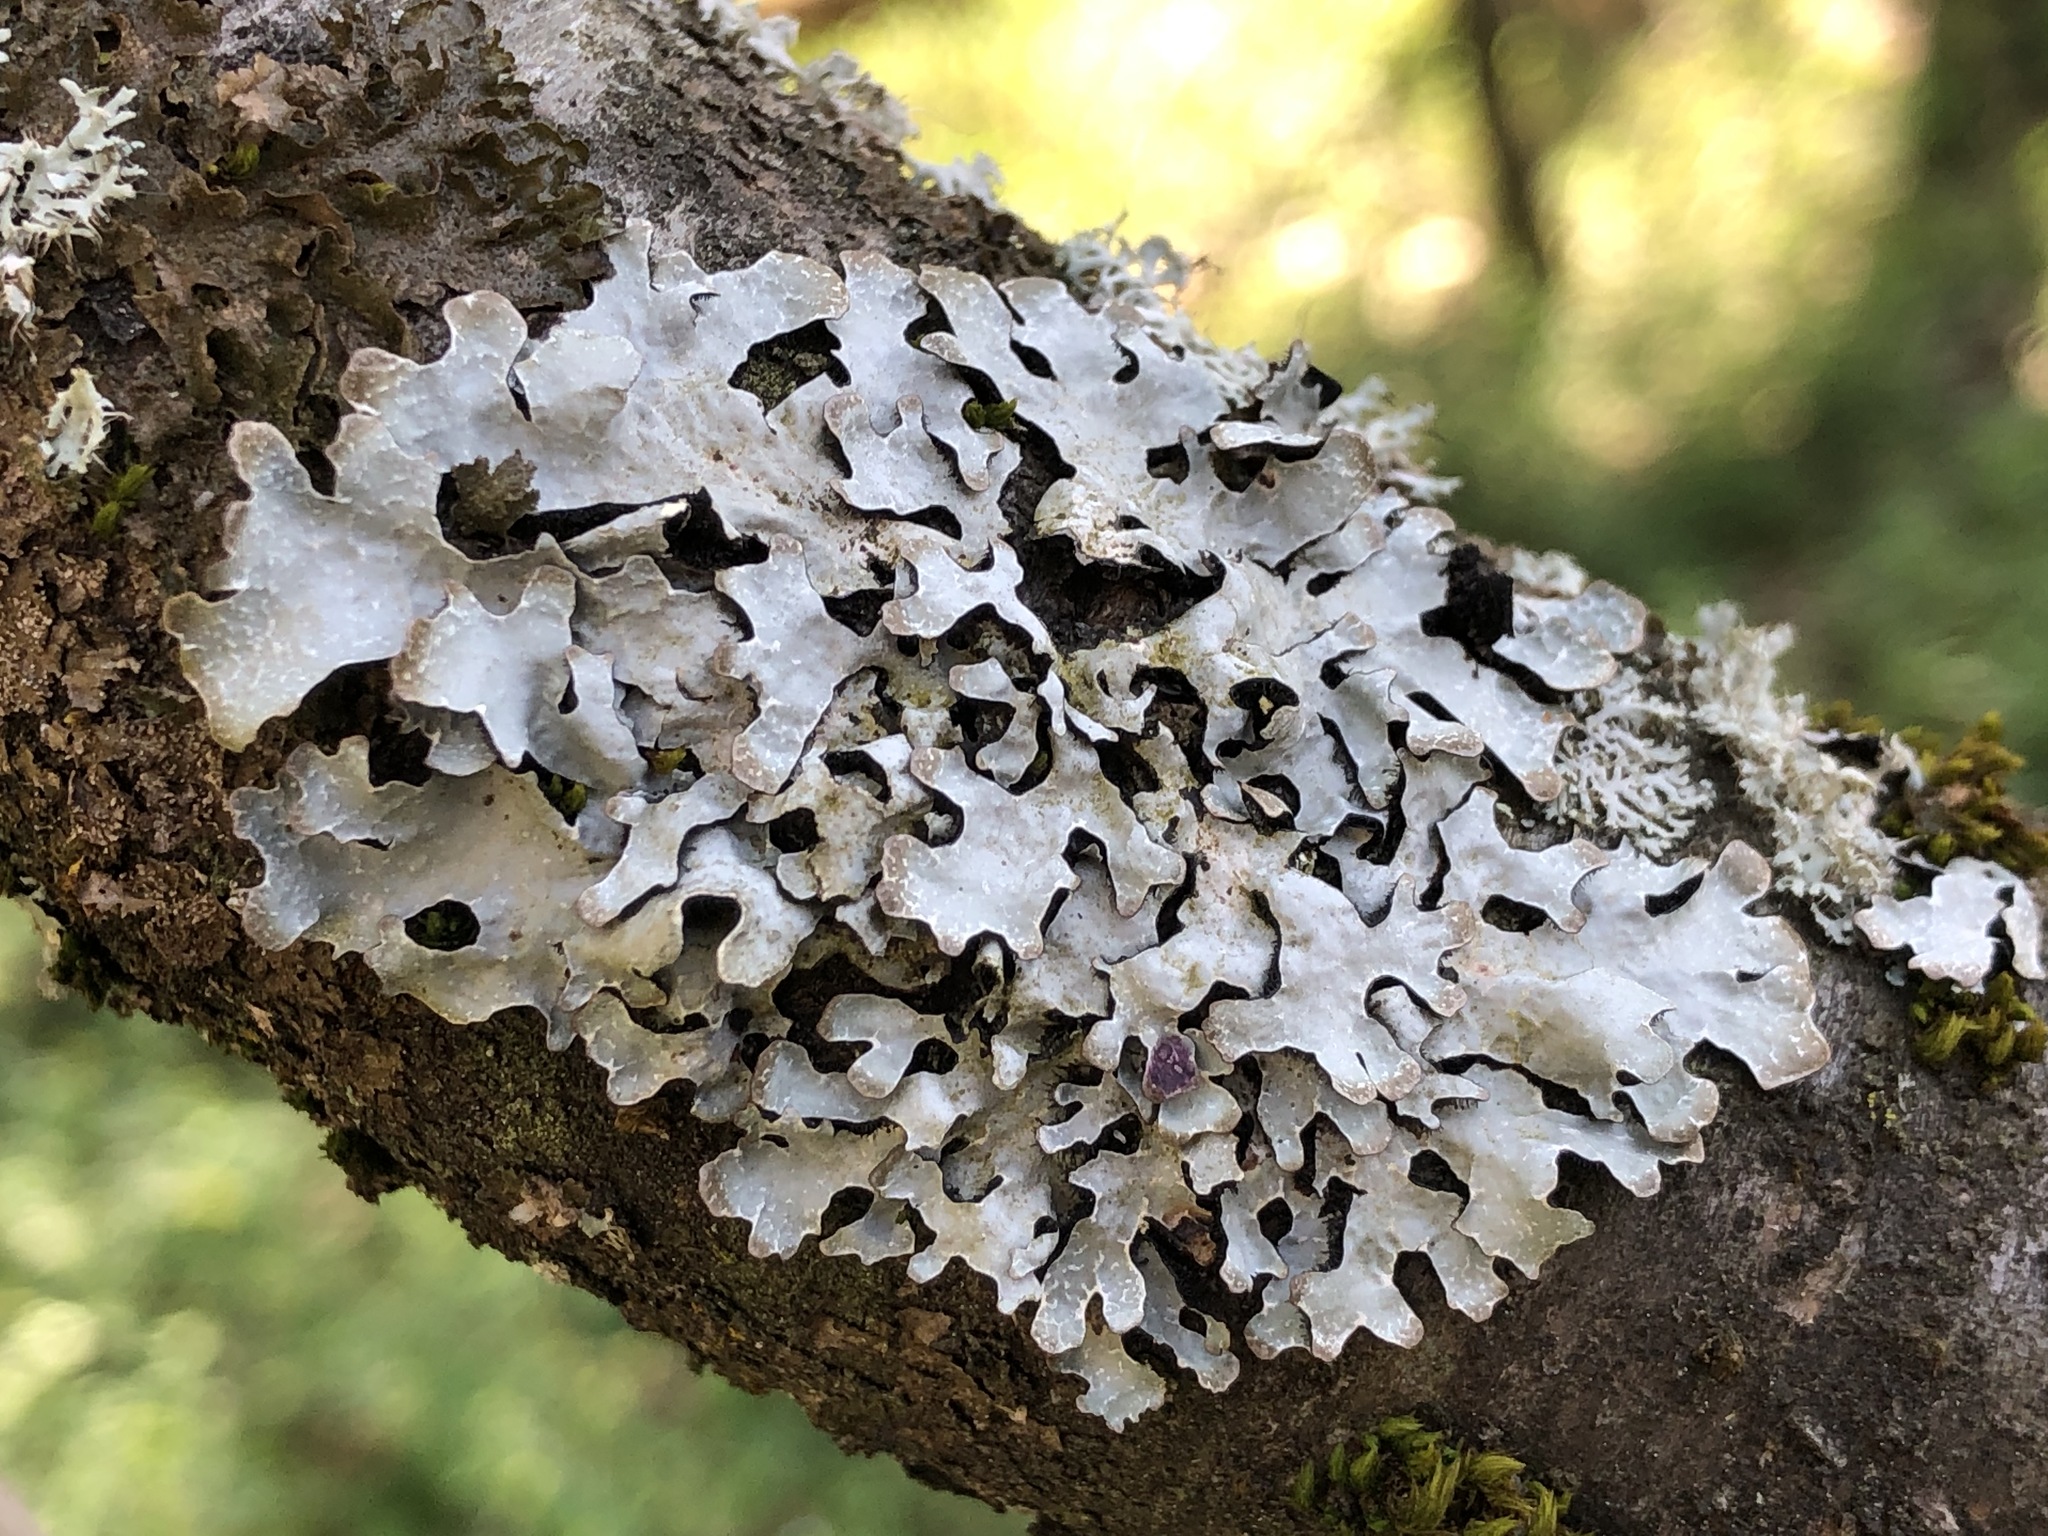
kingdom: Fungi
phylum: Ascomycota
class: Lecanoromycetes
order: Lecanorales
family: Parmeliaceae
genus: Parmelia
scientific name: Parmelia sulcata
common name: Netted shield lichen
